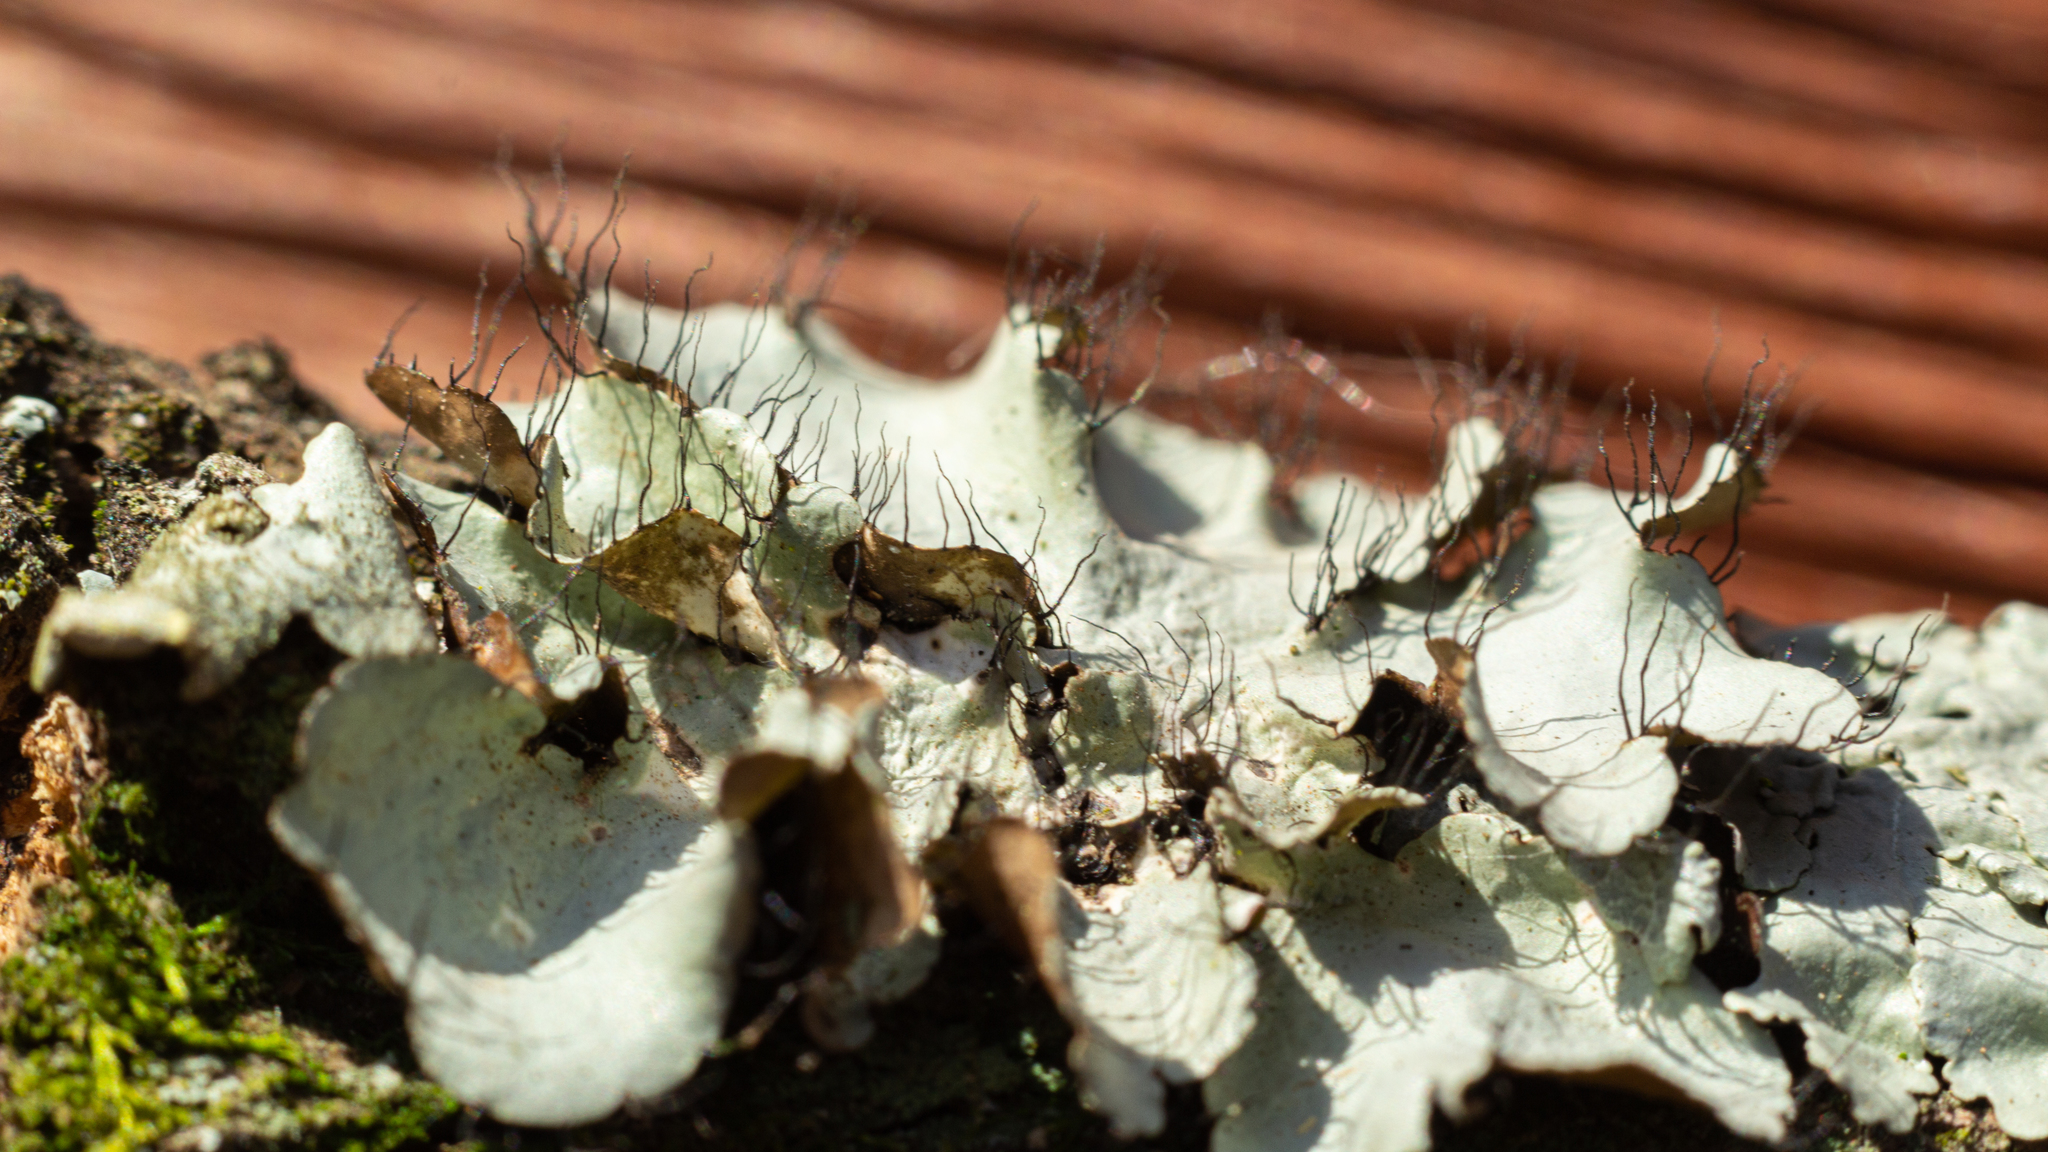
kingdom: Fungi
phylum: Ascomycota
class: Lecanoromycetes
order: Lecanorales
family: Parmeliaceae
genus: Parmotrema
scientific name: Parmotrema sancti-angeli
